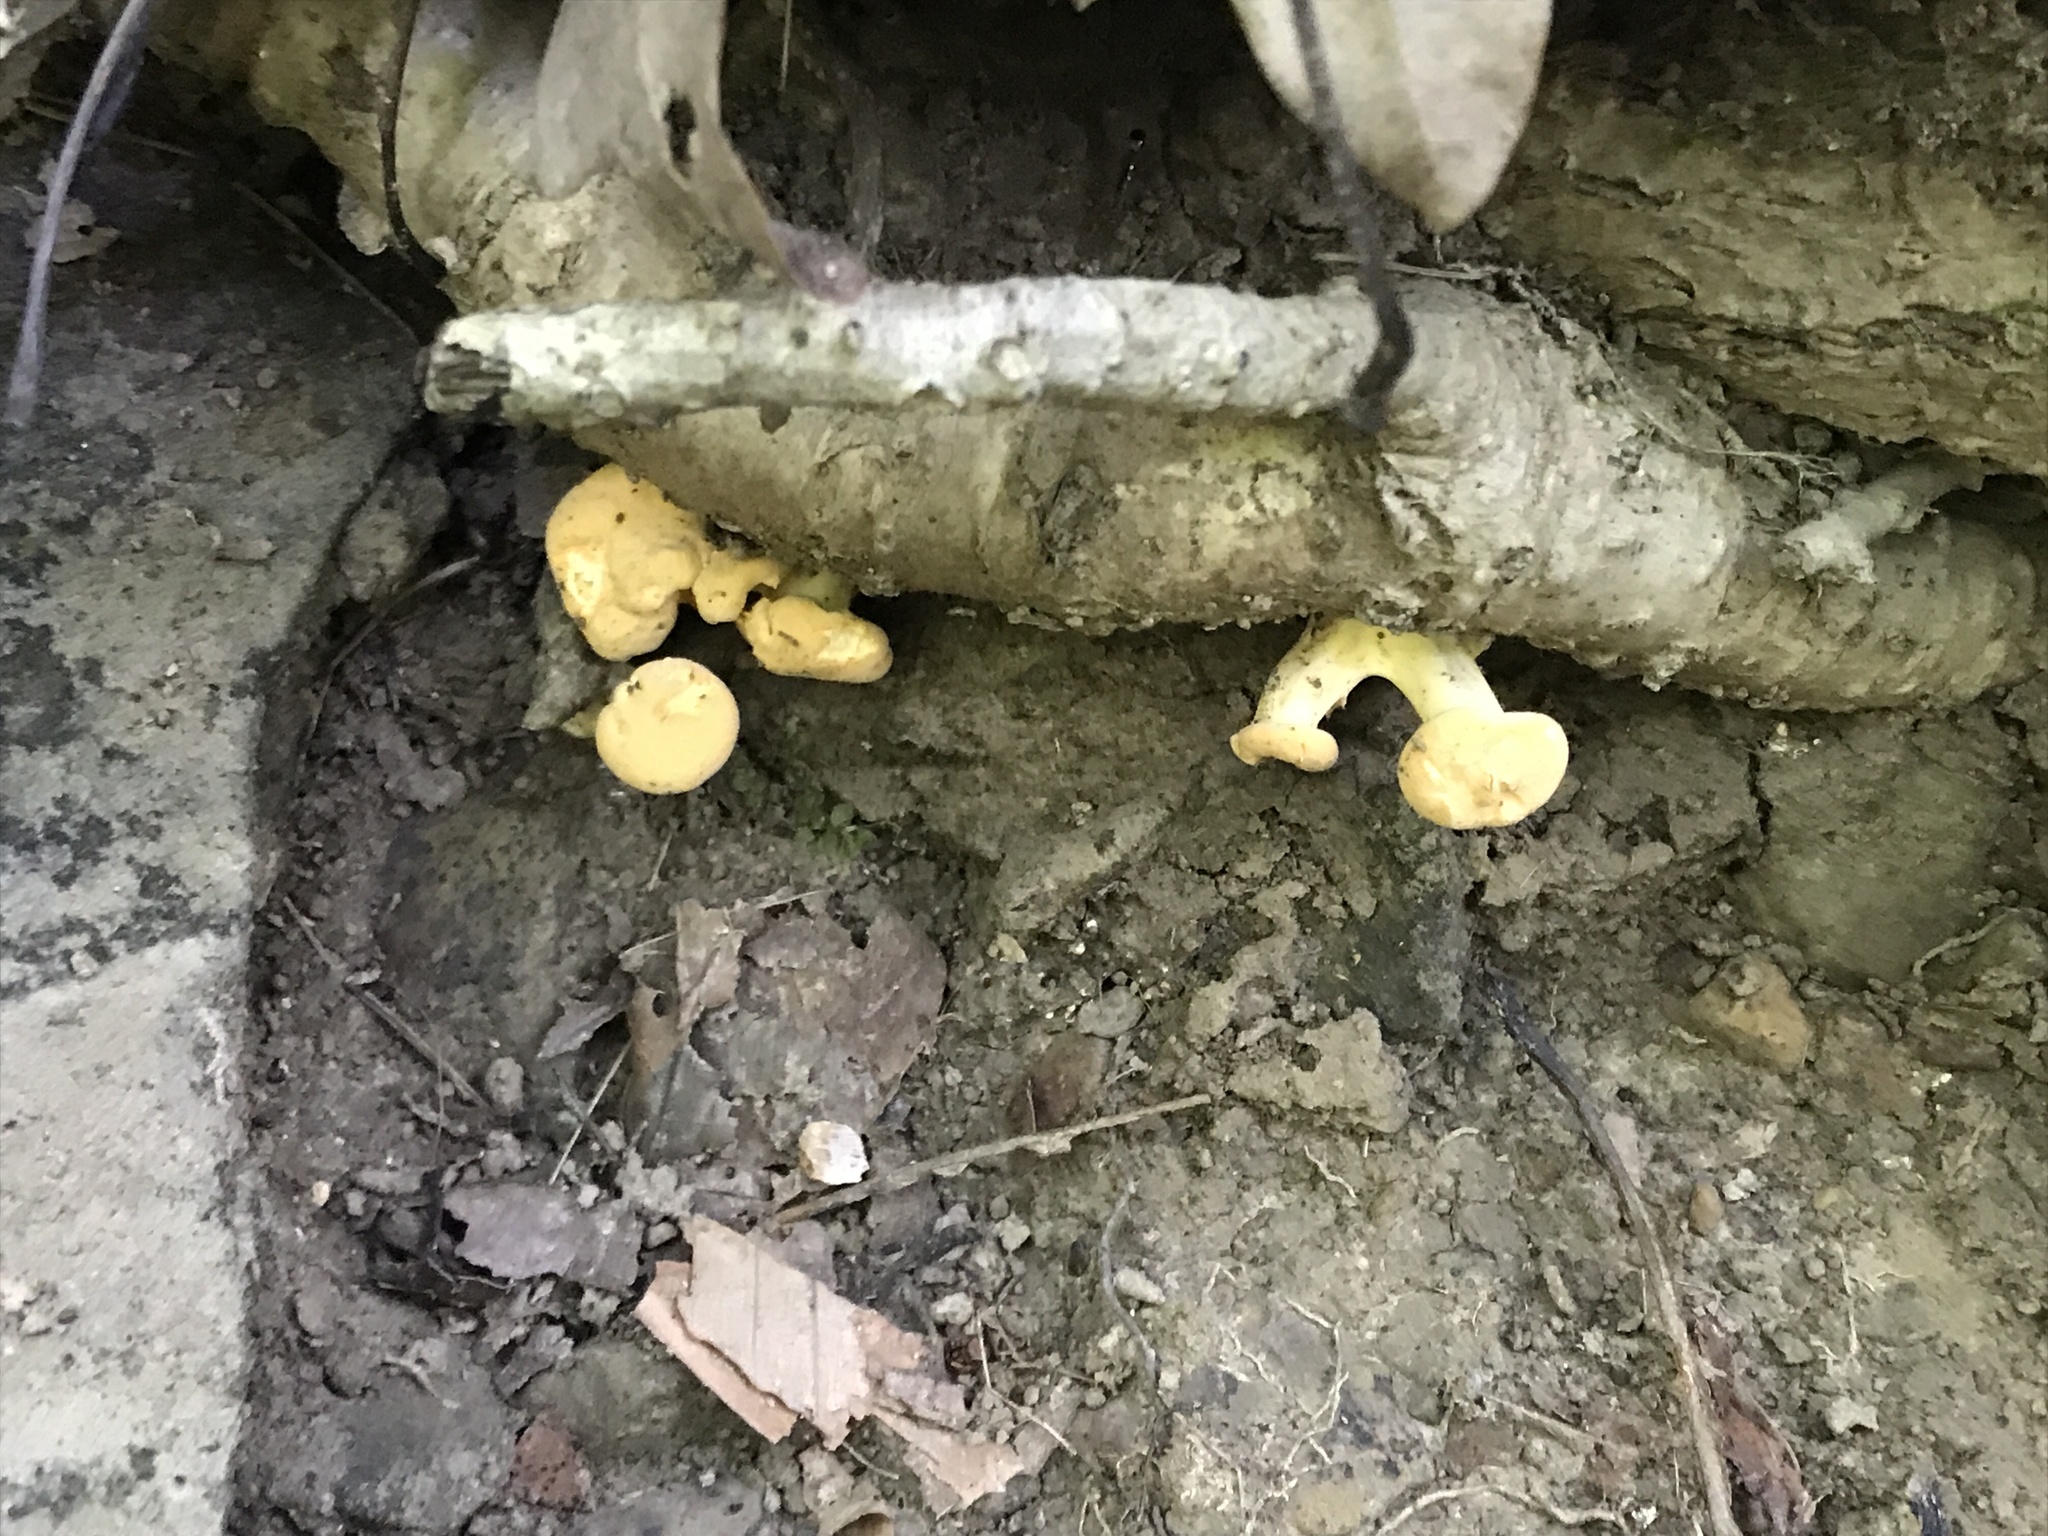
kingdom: Fungi
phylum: Basidiomycota
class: Agaricomycetes
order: Cantharellales
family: Hydnaceae
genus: Cantharellus
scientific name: Cantharellus flavolateritius
